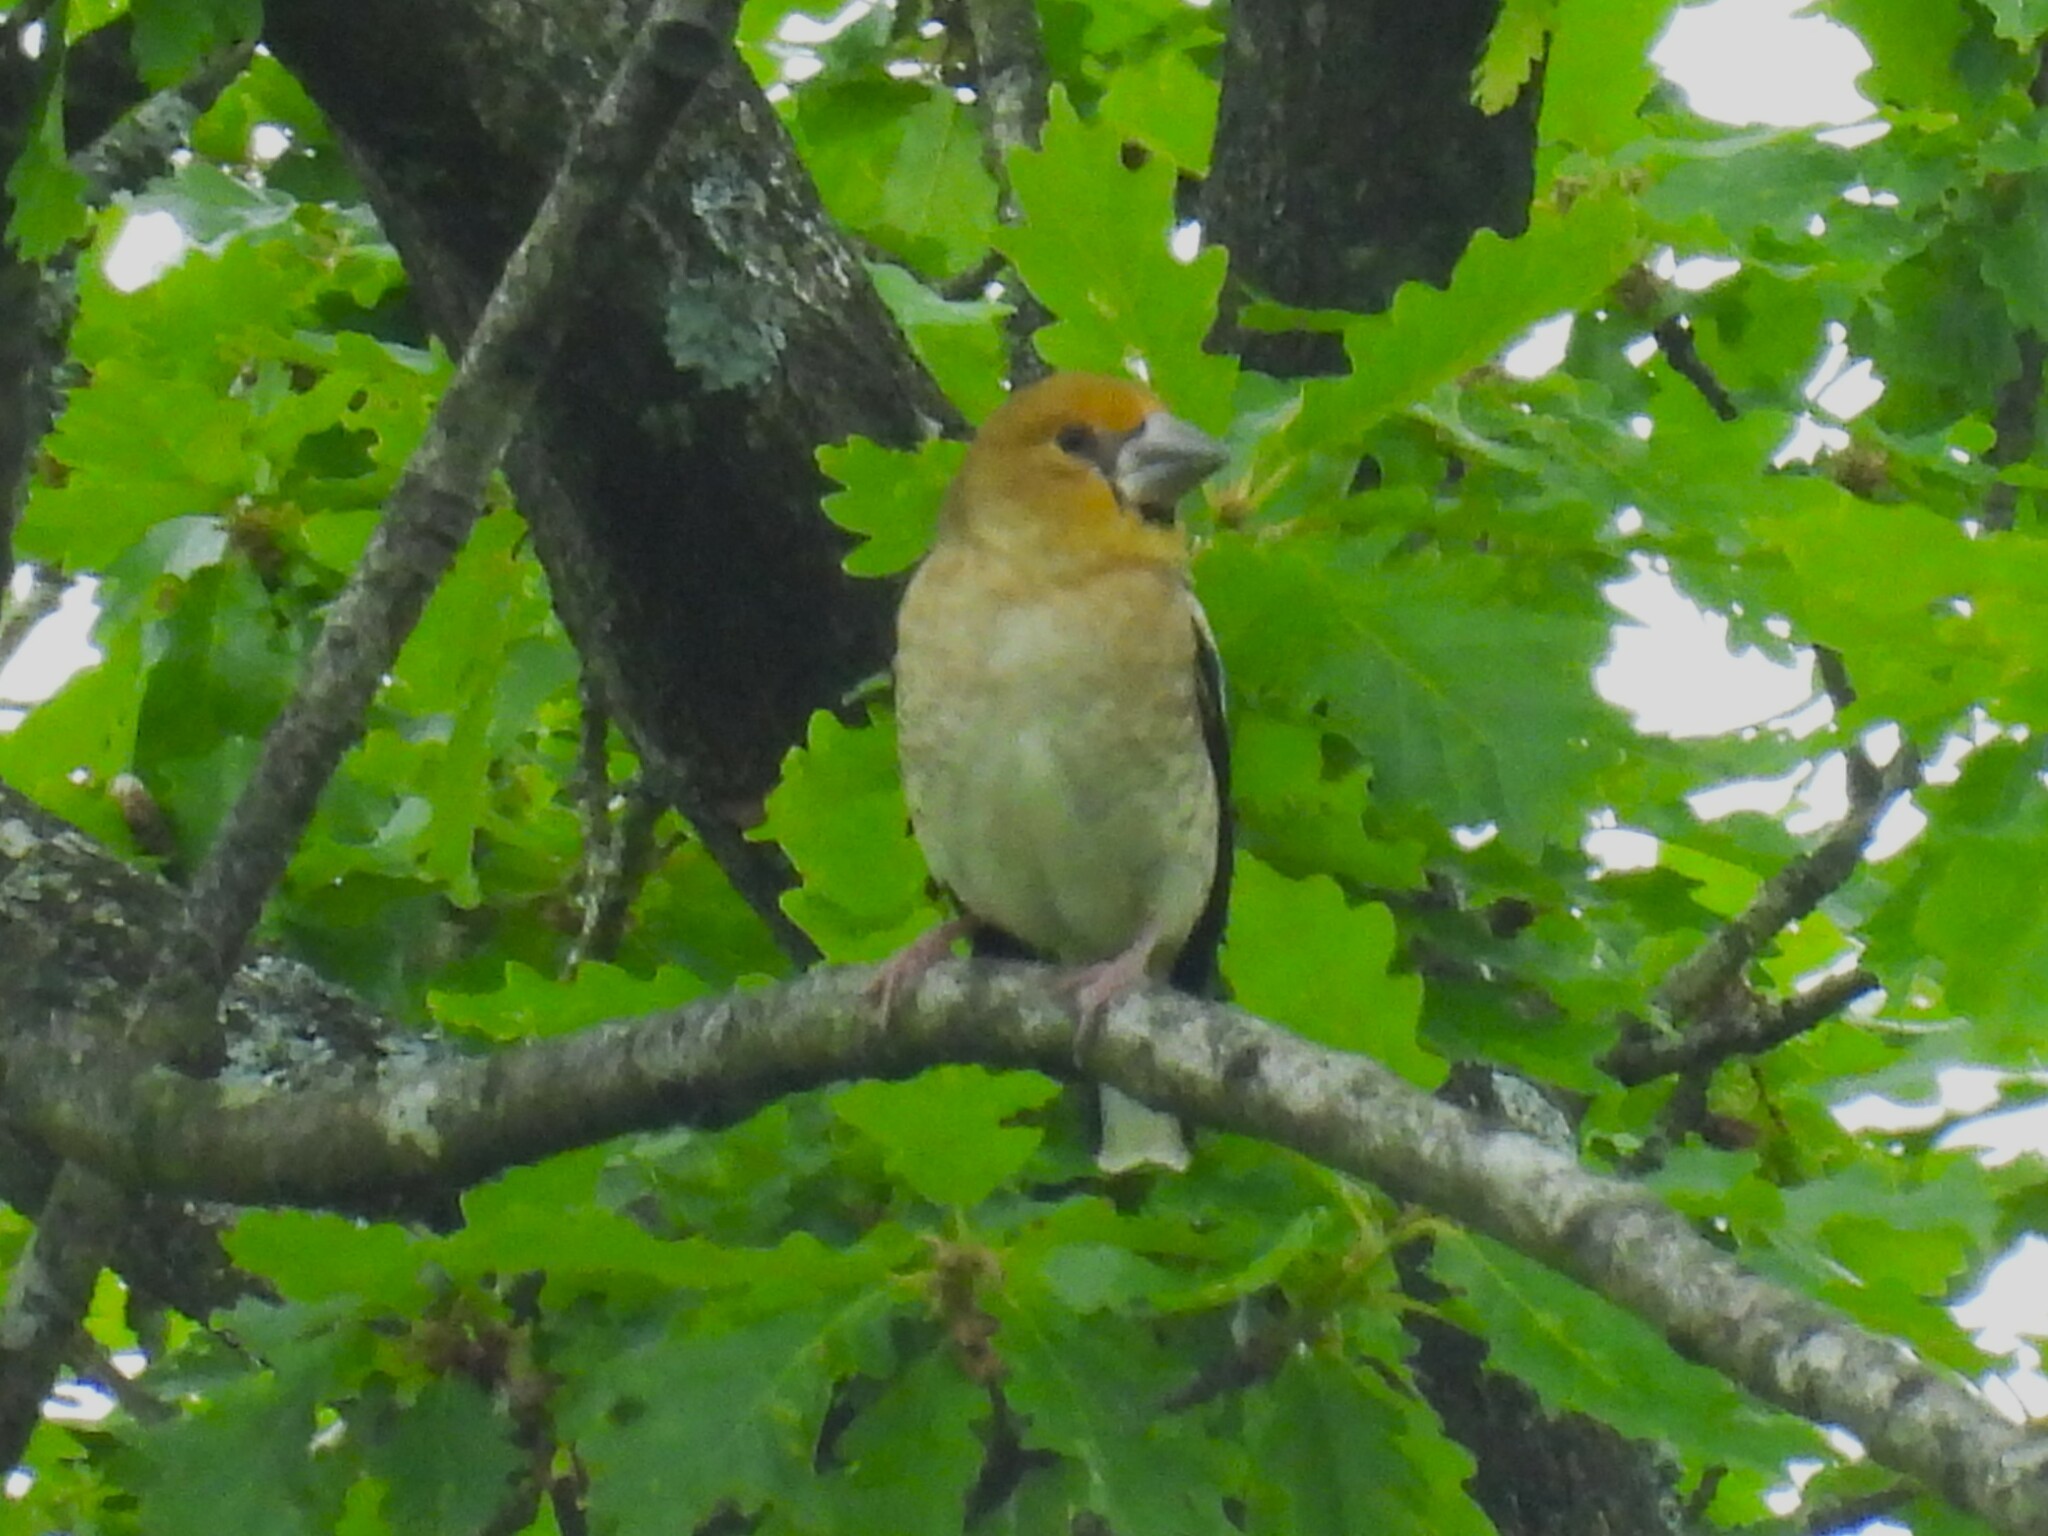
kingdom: Animalia
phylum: Chordata
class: Aves
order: Passeriformes
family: Fringillidae
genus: Coccothraustes
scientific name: Coccothraustes coccothraustes
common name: Hawfinch
